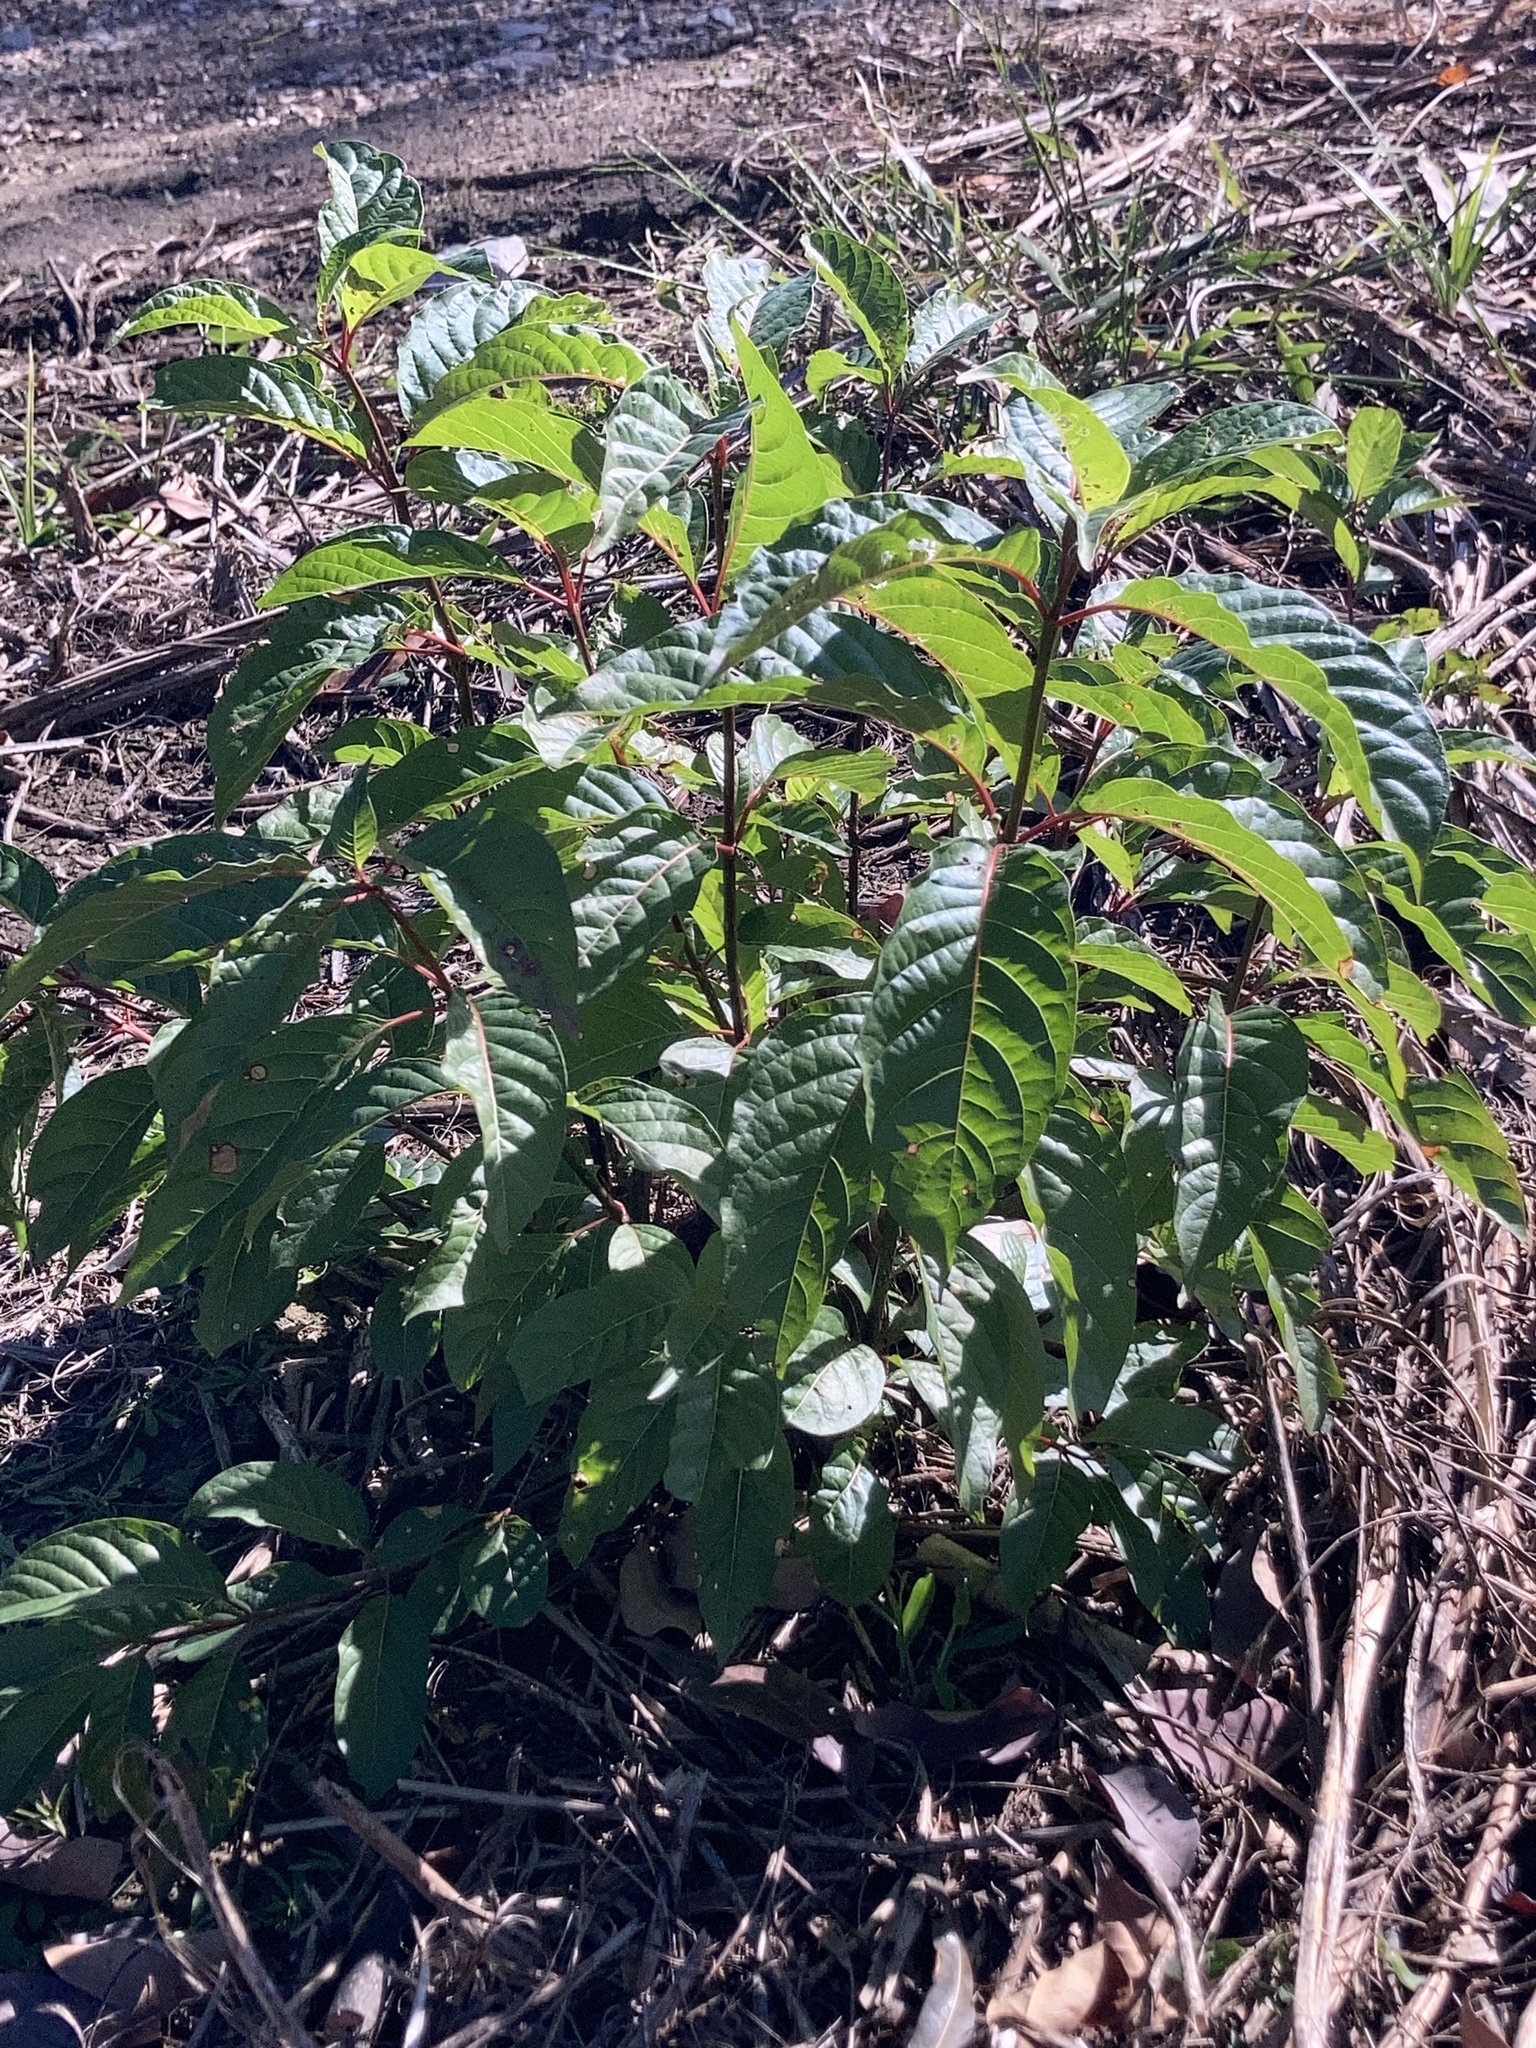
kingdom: Plantae
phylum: Tracheophyta
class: Magnoliopsida
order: Gentianales
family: Rubiaceae
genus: Cephalanthus
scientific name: Cephalanthus occidentalis
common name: Button-willow
